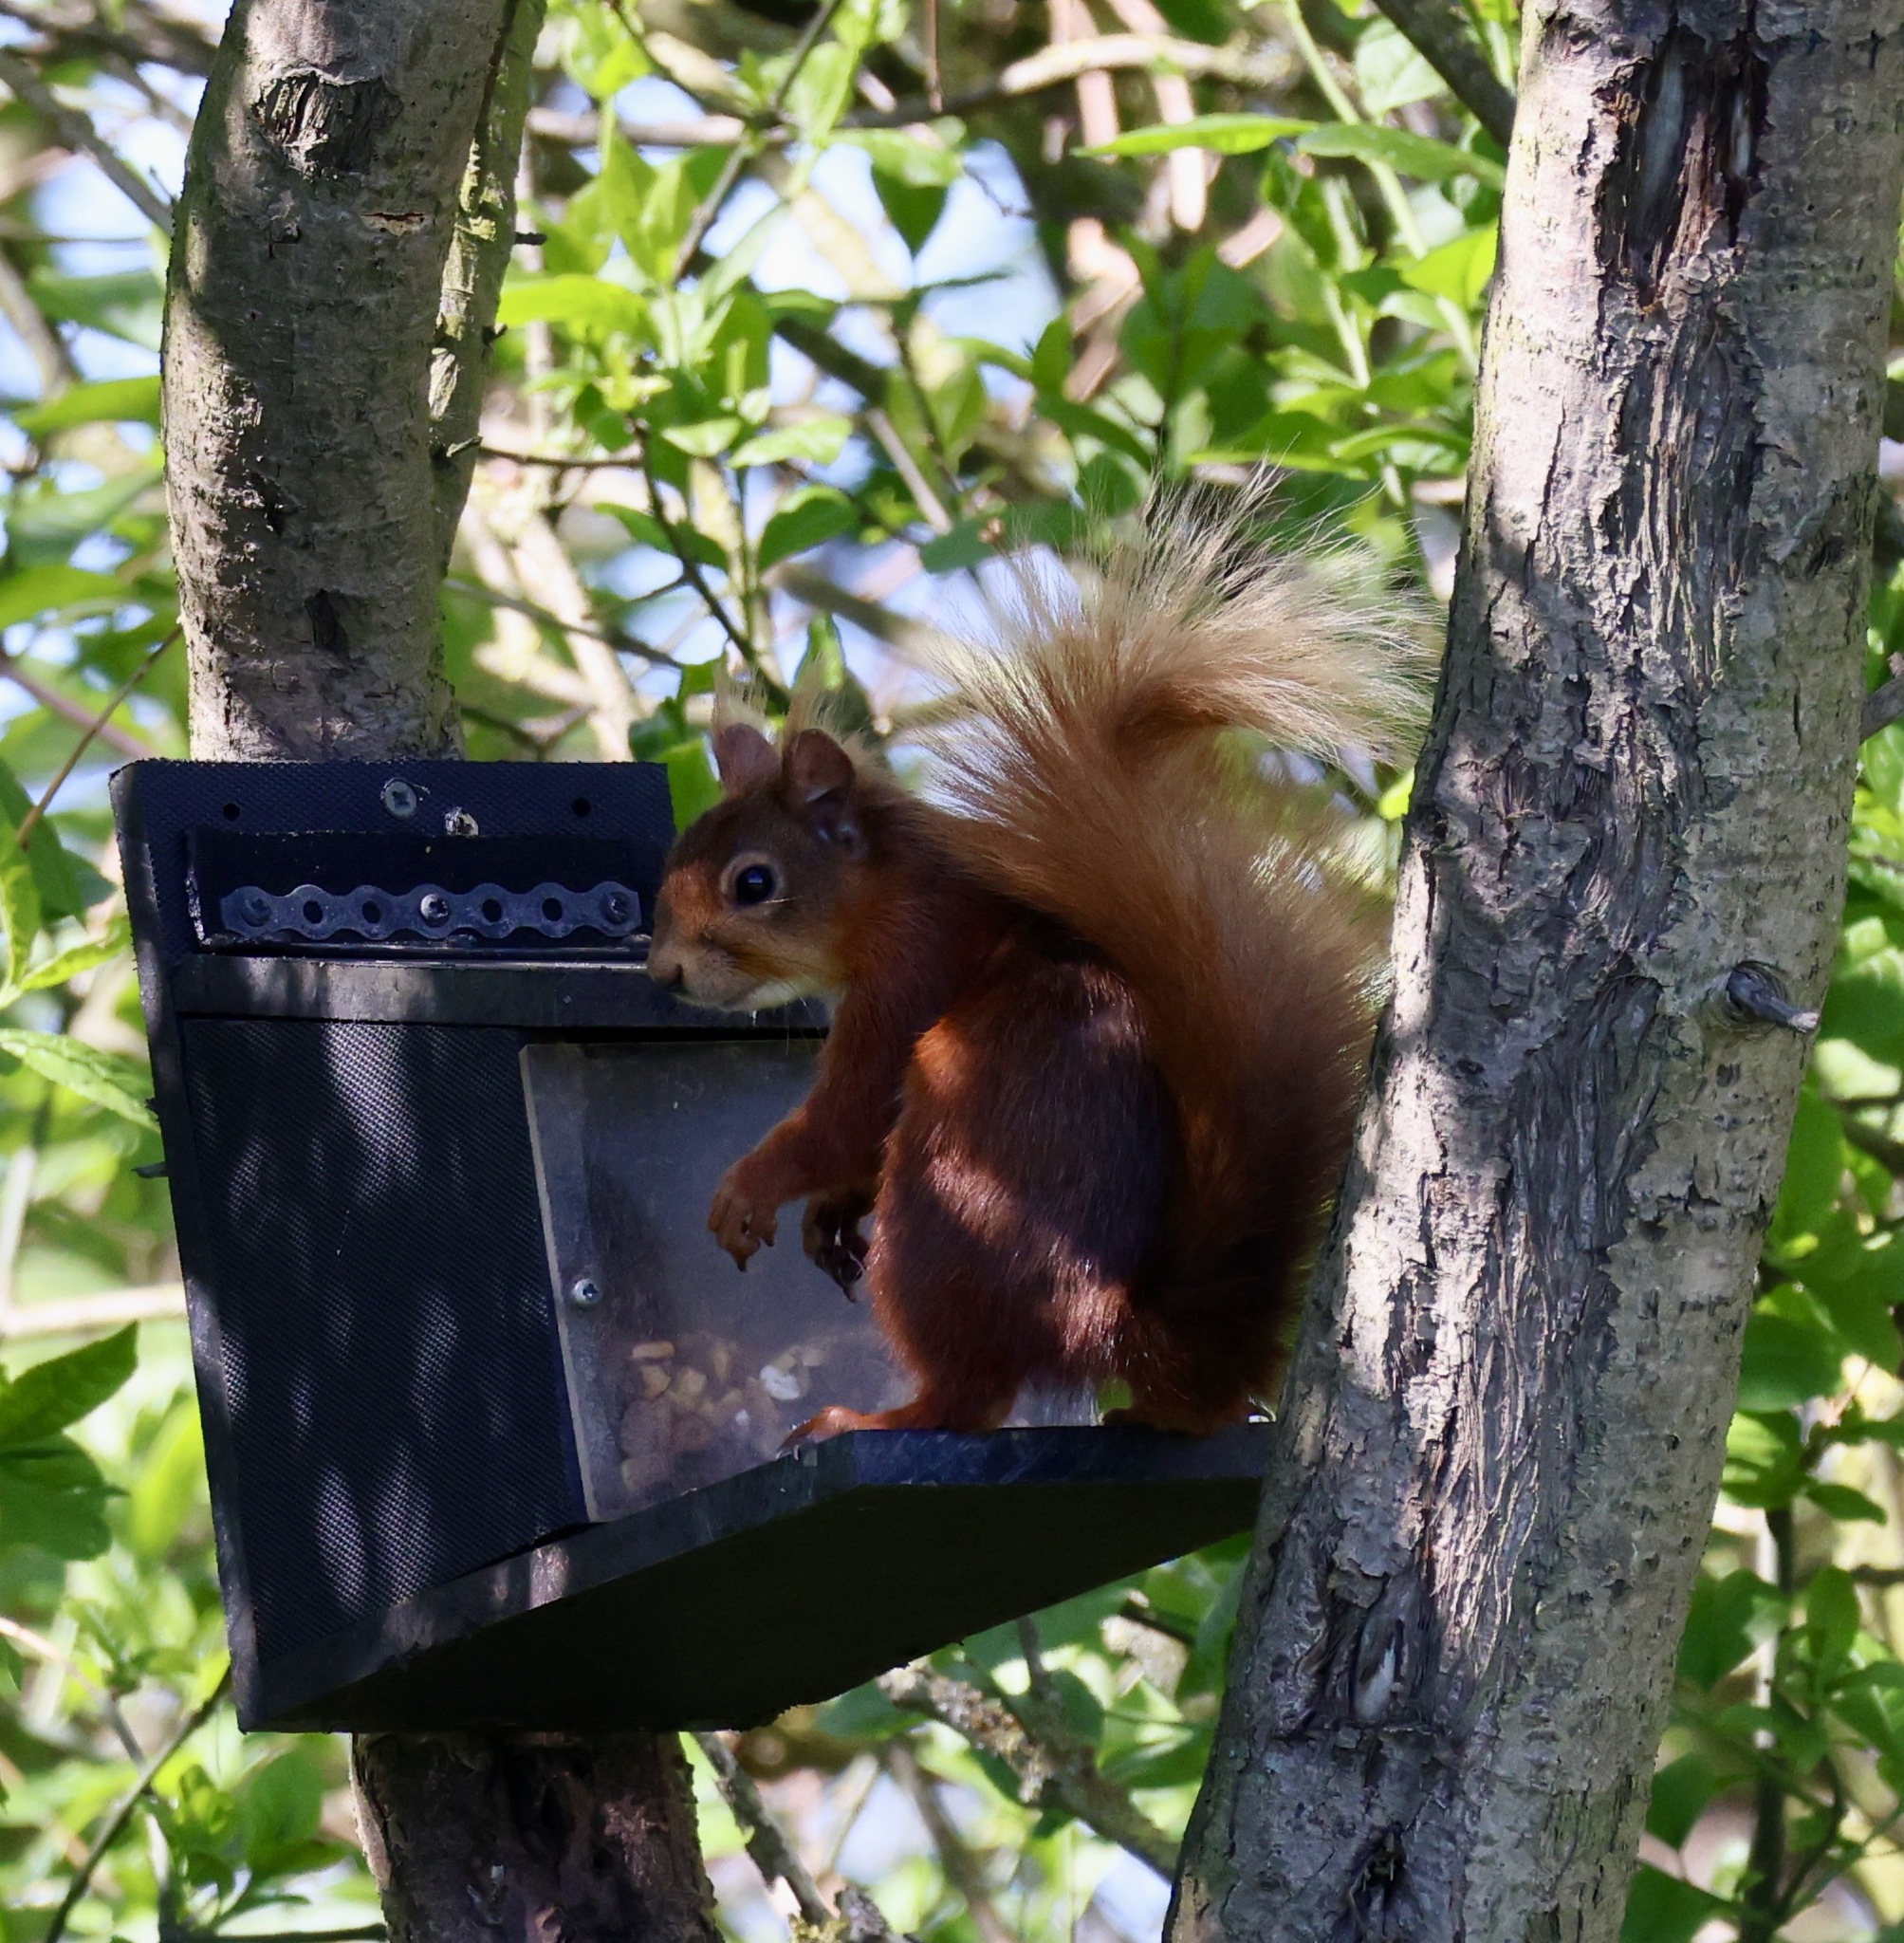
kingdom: Animalia
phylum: Chordata
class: Mammalia
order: Rodentia
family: Sciuridae
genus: Sciurus
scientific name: Sciurus vulgaris
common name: Eurasian red squirrel
